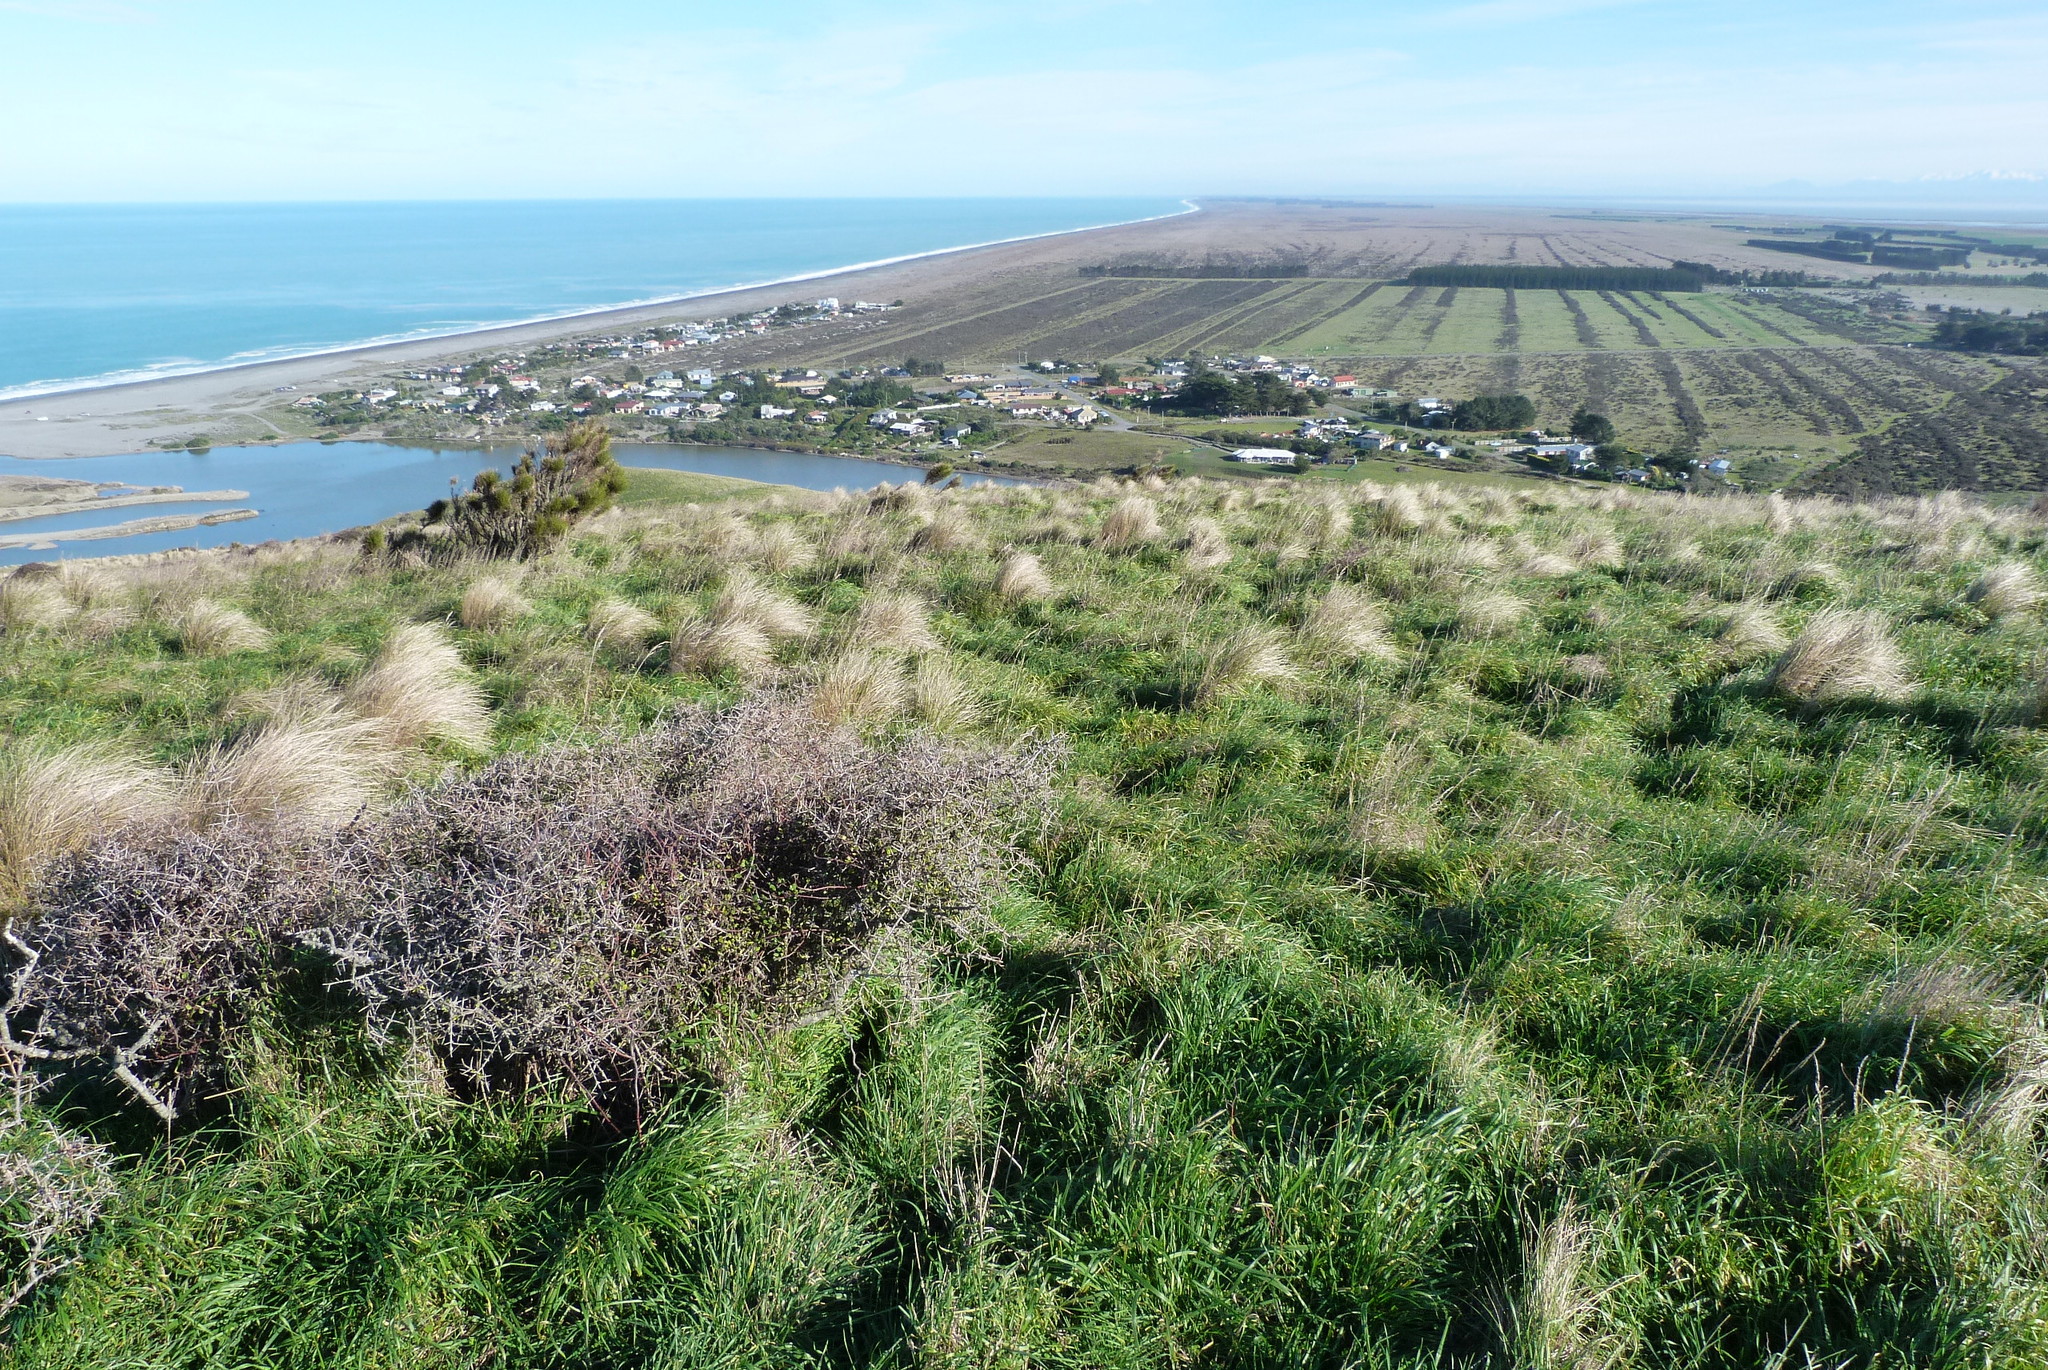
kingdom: Plantae
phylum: Tracheophyta
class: Magnoliopsida
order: Rosales
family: Rhamnaceae
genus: Discaria
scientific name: Discaria toumatou
